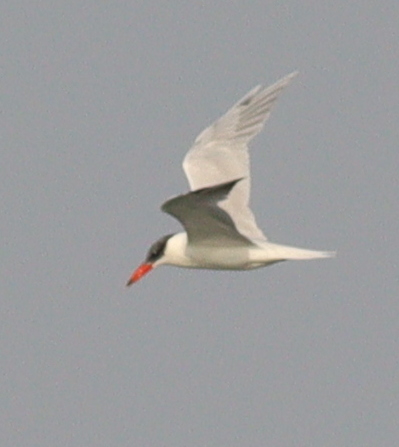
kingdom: Animalia
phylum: Chordata
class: Aves
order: Charadriiformes
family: Laridae
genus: Hydroprogne
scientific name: Hydroprogne caspia
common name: Caspian tern
